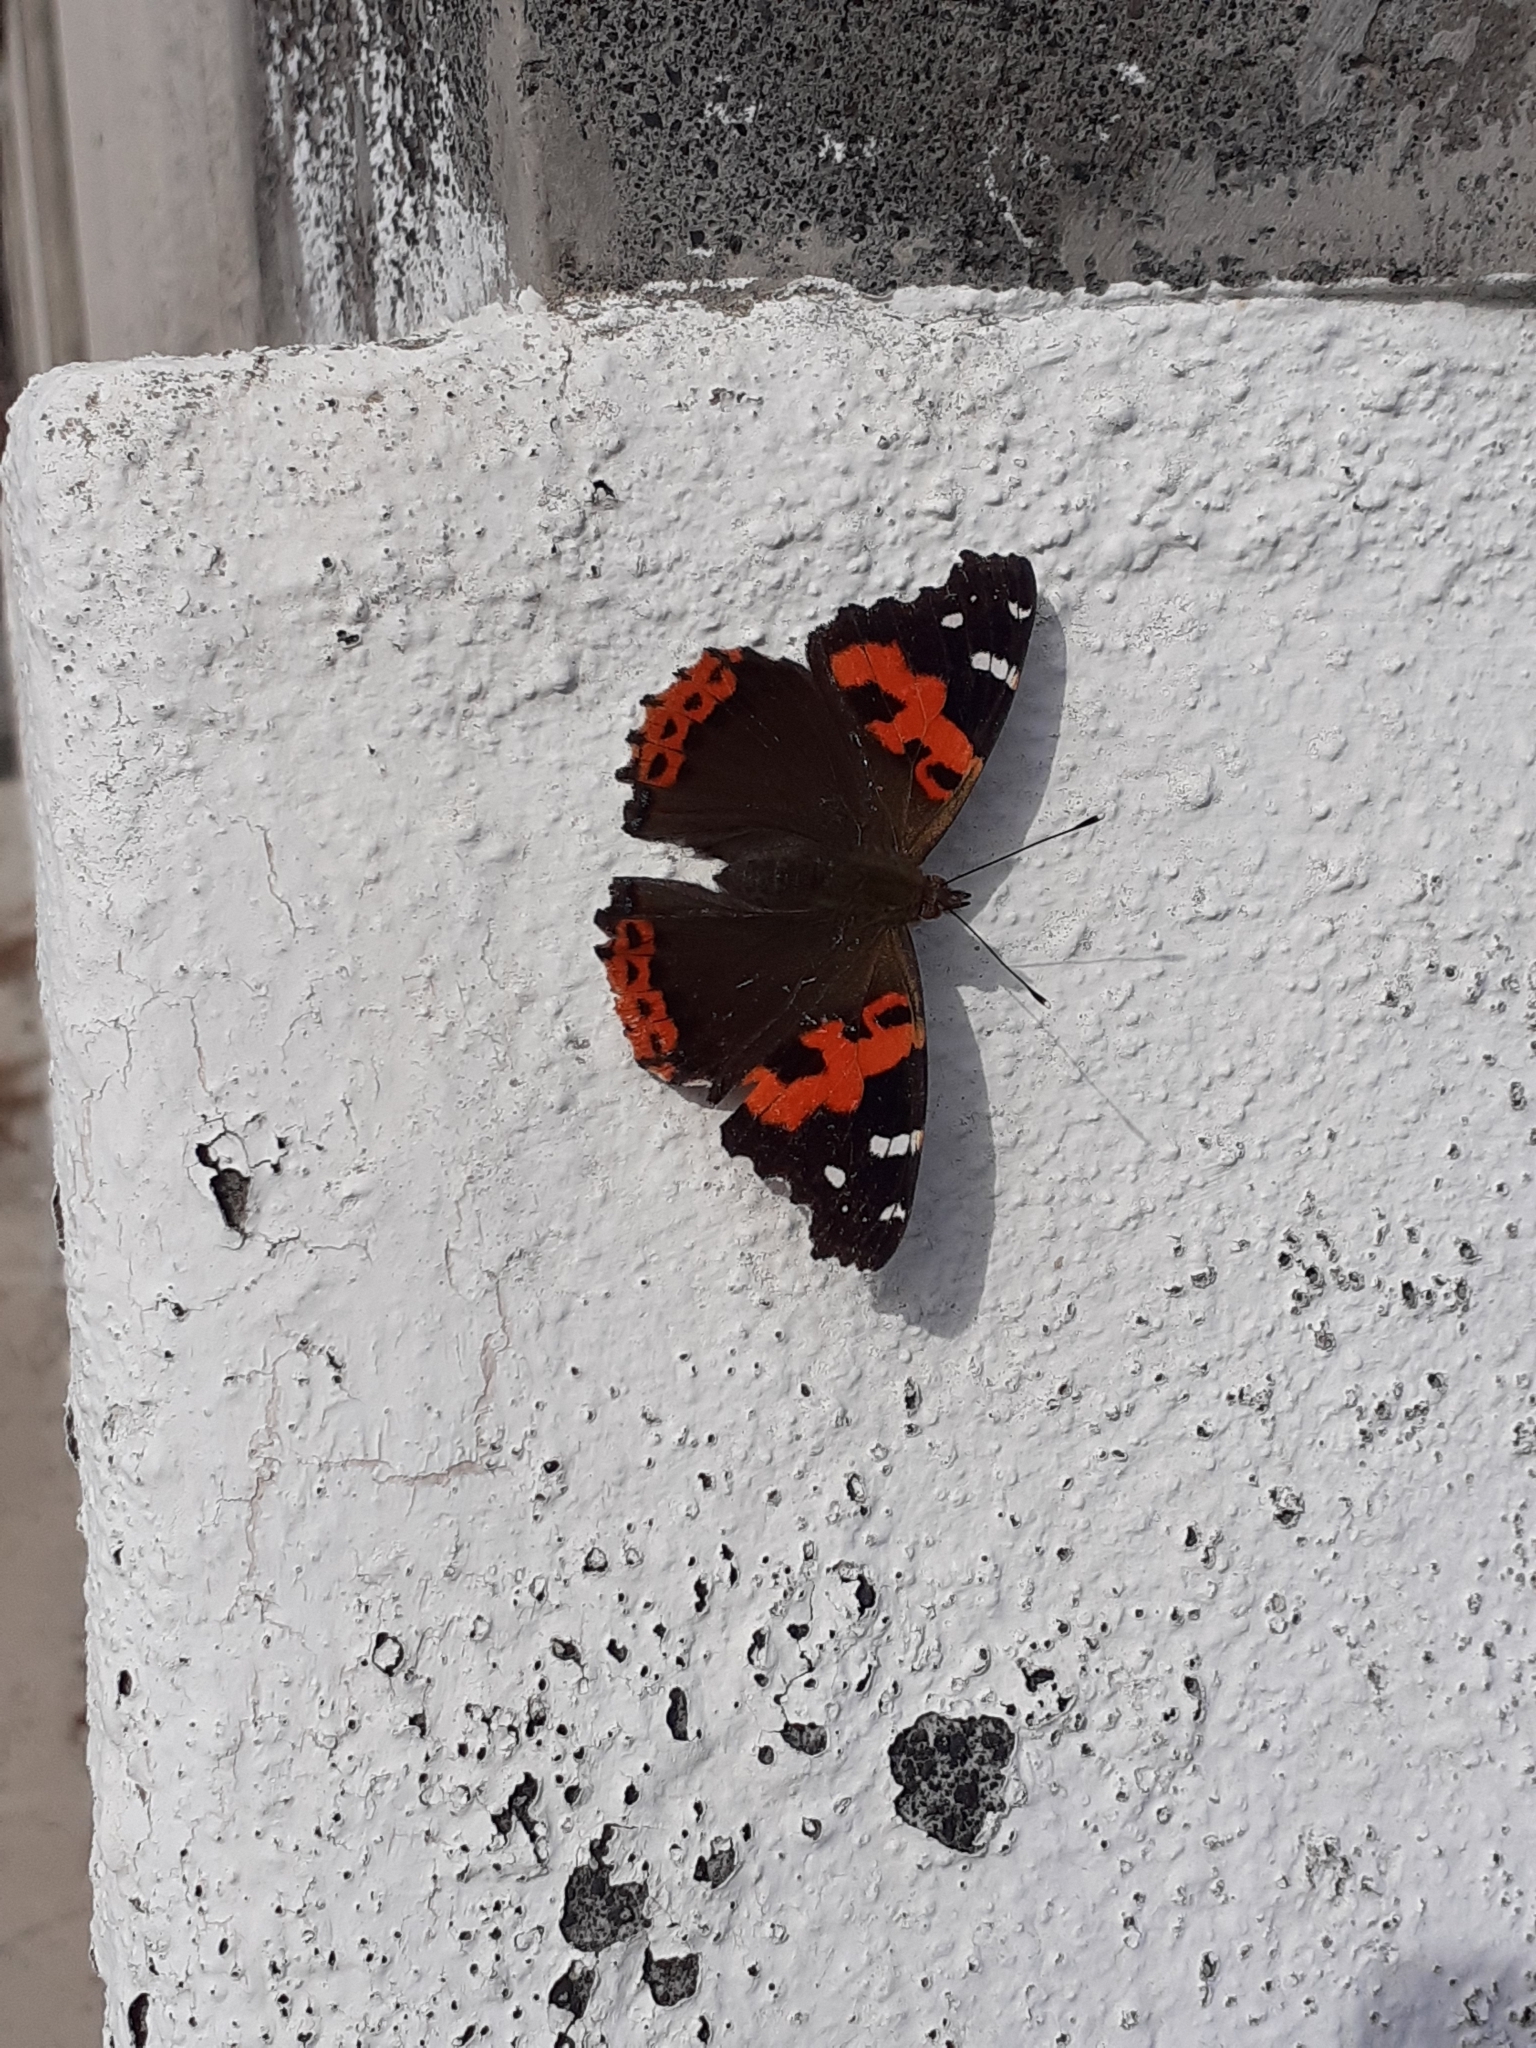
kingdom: Animalia
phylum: Arthropoda
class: Insecta
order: Lepidoptera
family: Nymphalidae
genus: Vanessa
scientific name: Vanessa vulcania
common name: Canary red admiral
